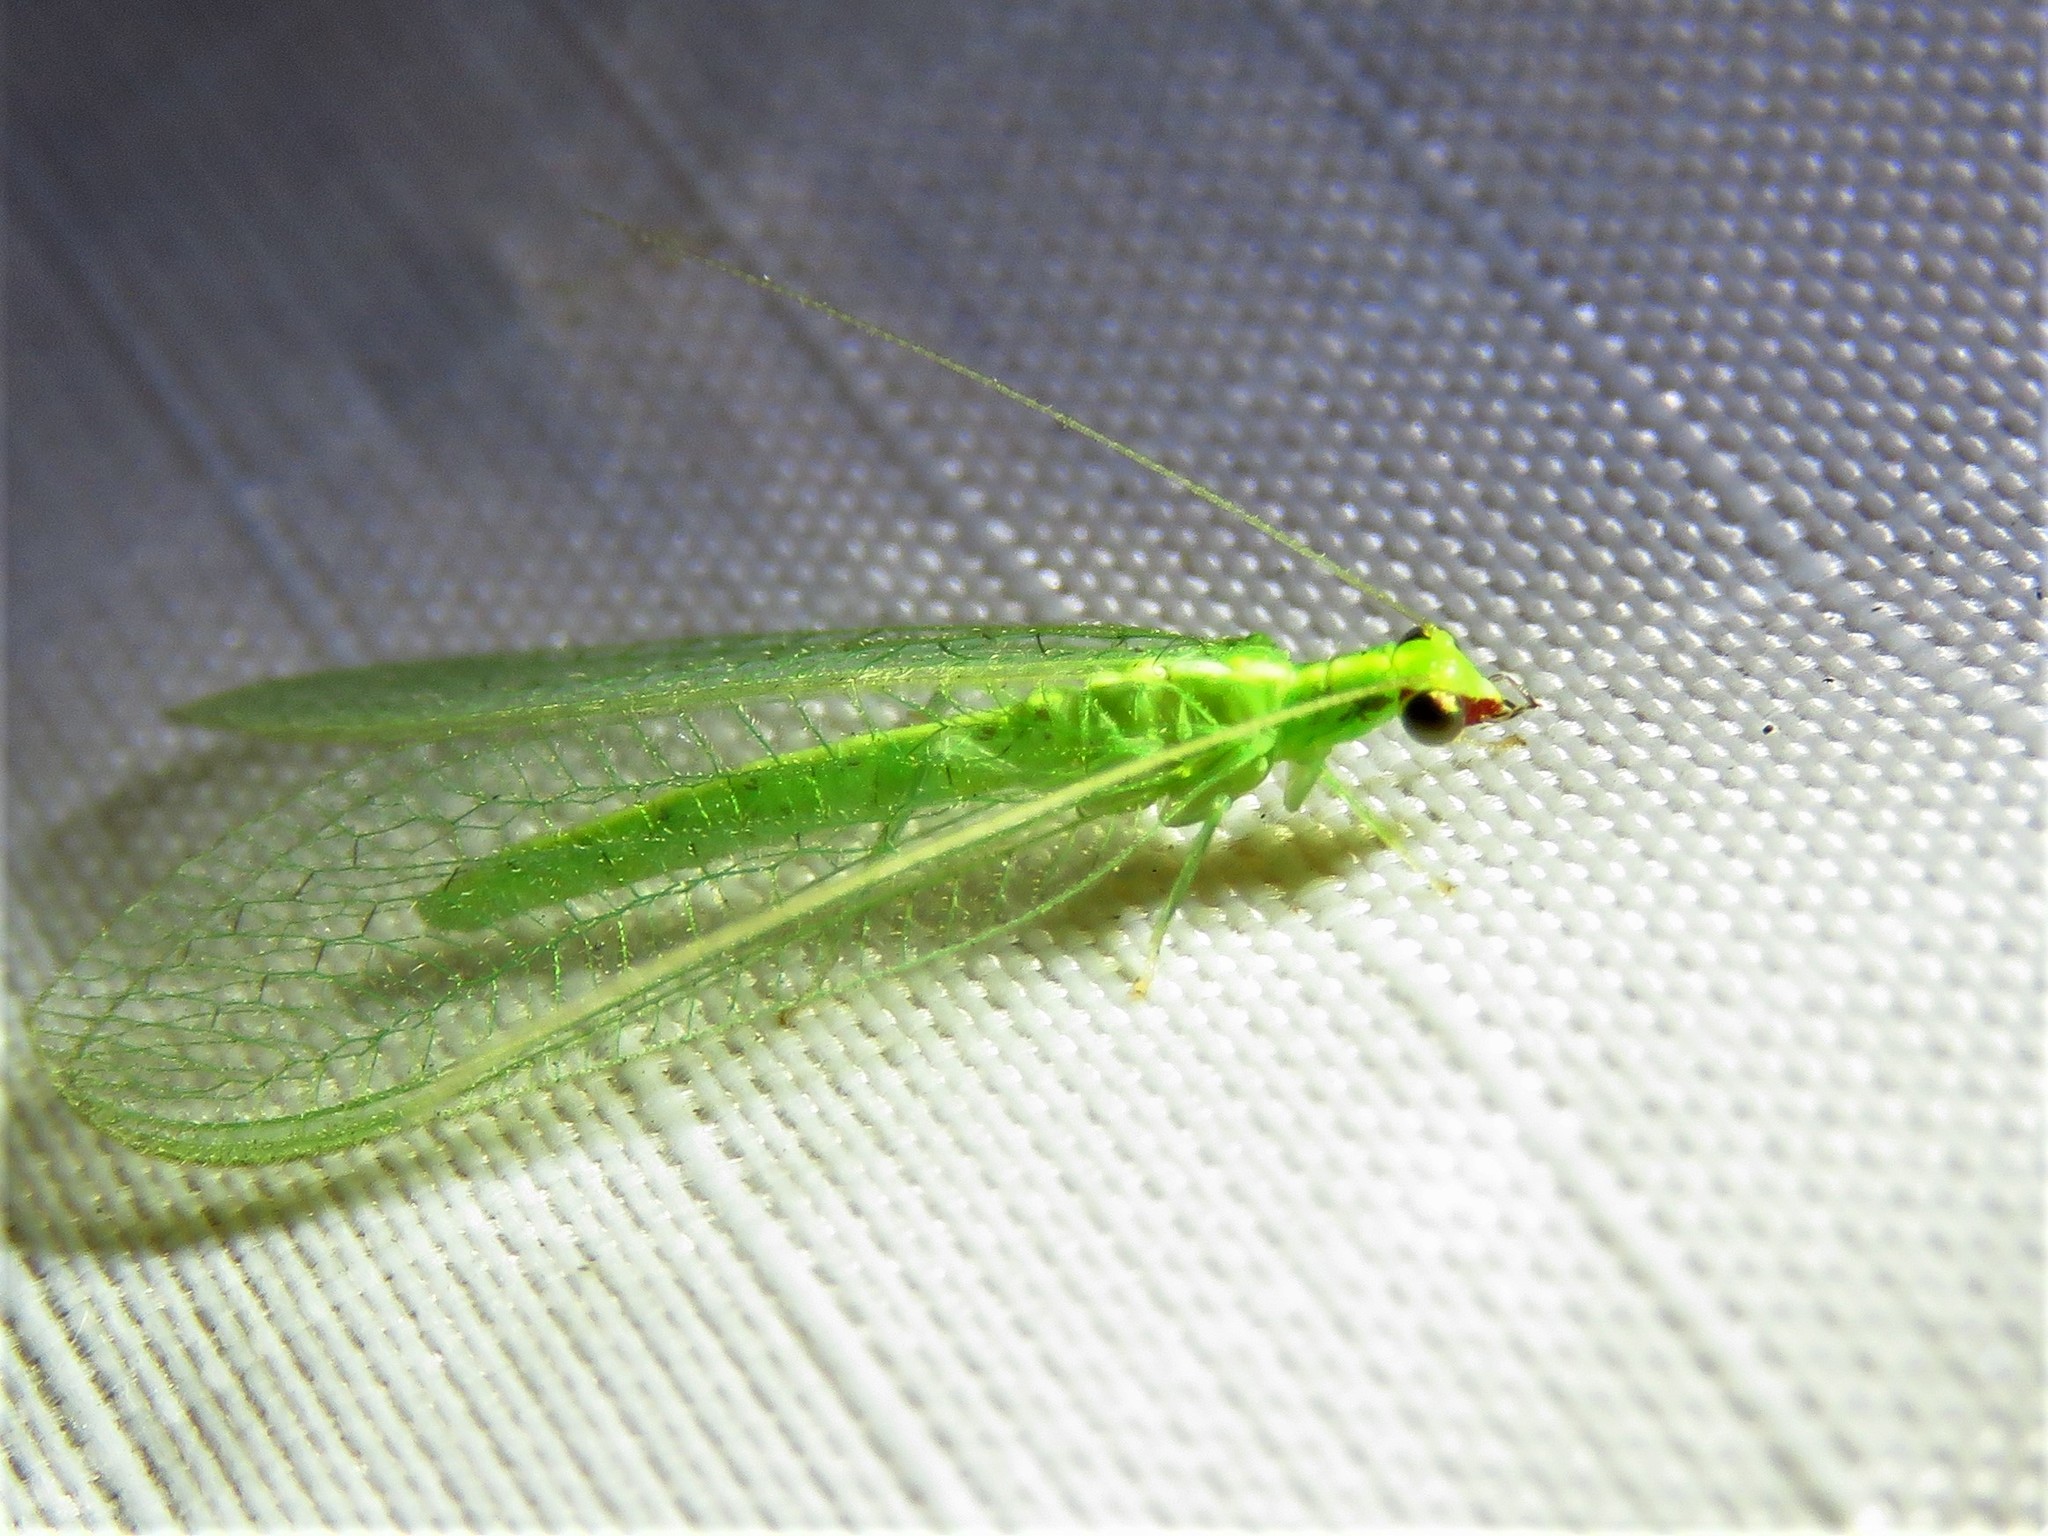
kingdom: Animalia
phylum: Arthropoda
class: Insecta
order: Neuroptera
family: Chrysopidae
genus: Chrysoperla
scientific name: Chrysoperla rufilabris
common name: Red-lipped green lacewing
